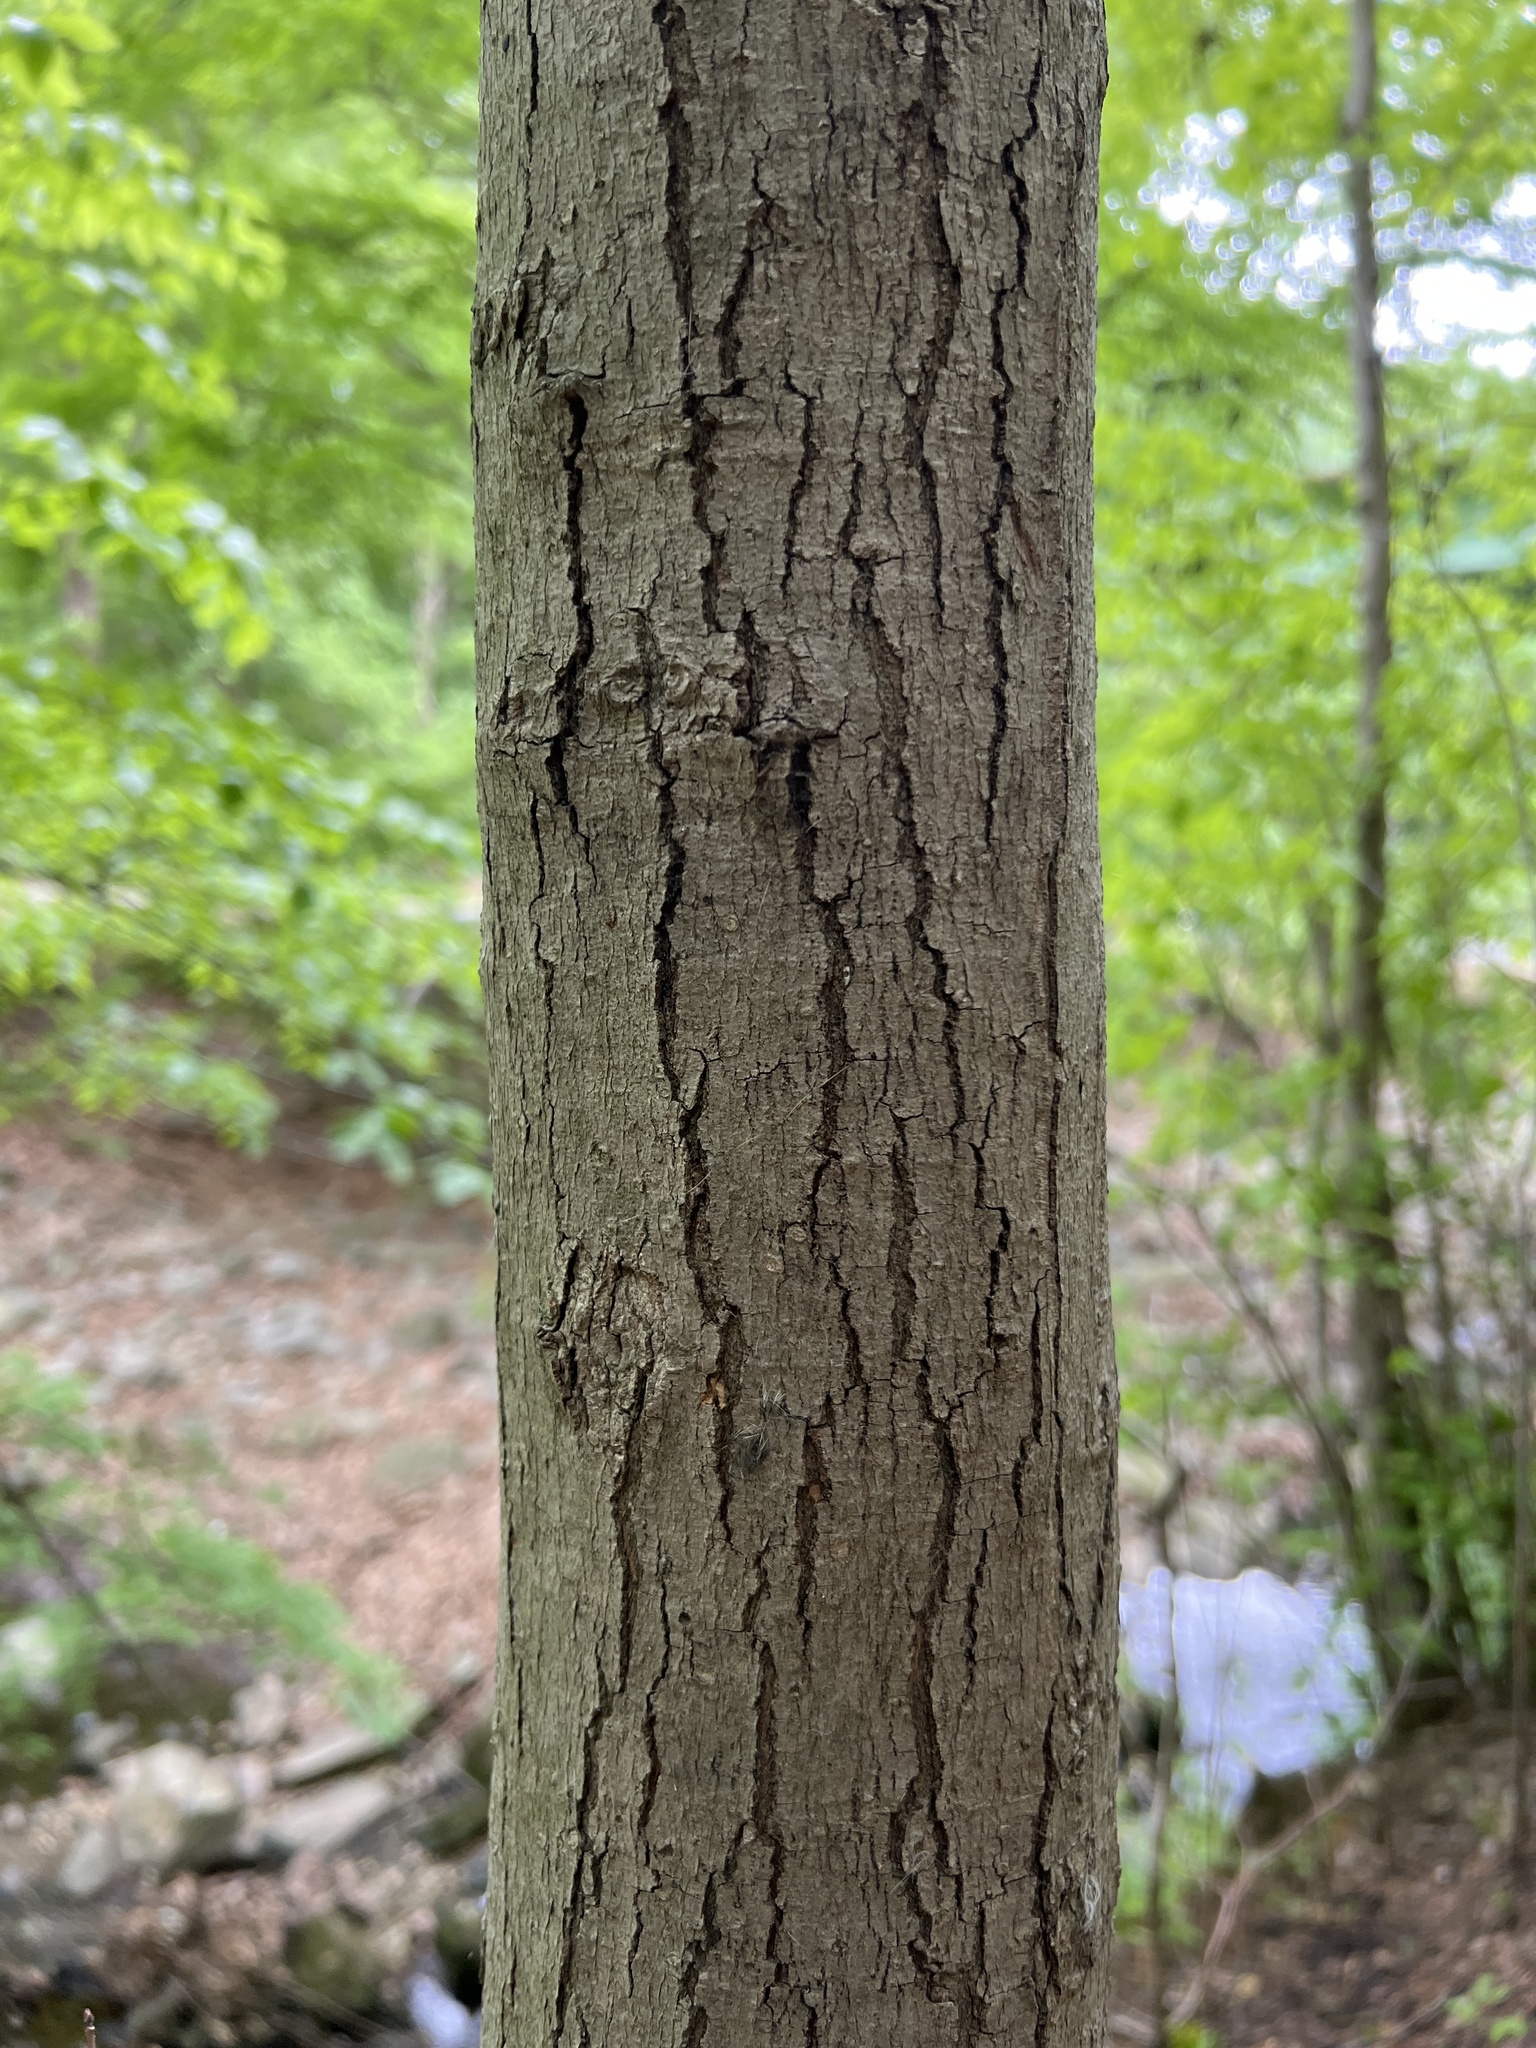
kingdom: Plantae
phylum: Tracheophyta
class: Magnoliopsida
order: Sapindales
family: Sapindaceae
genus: Acer
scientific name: Acer rubrum
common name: Red maple
